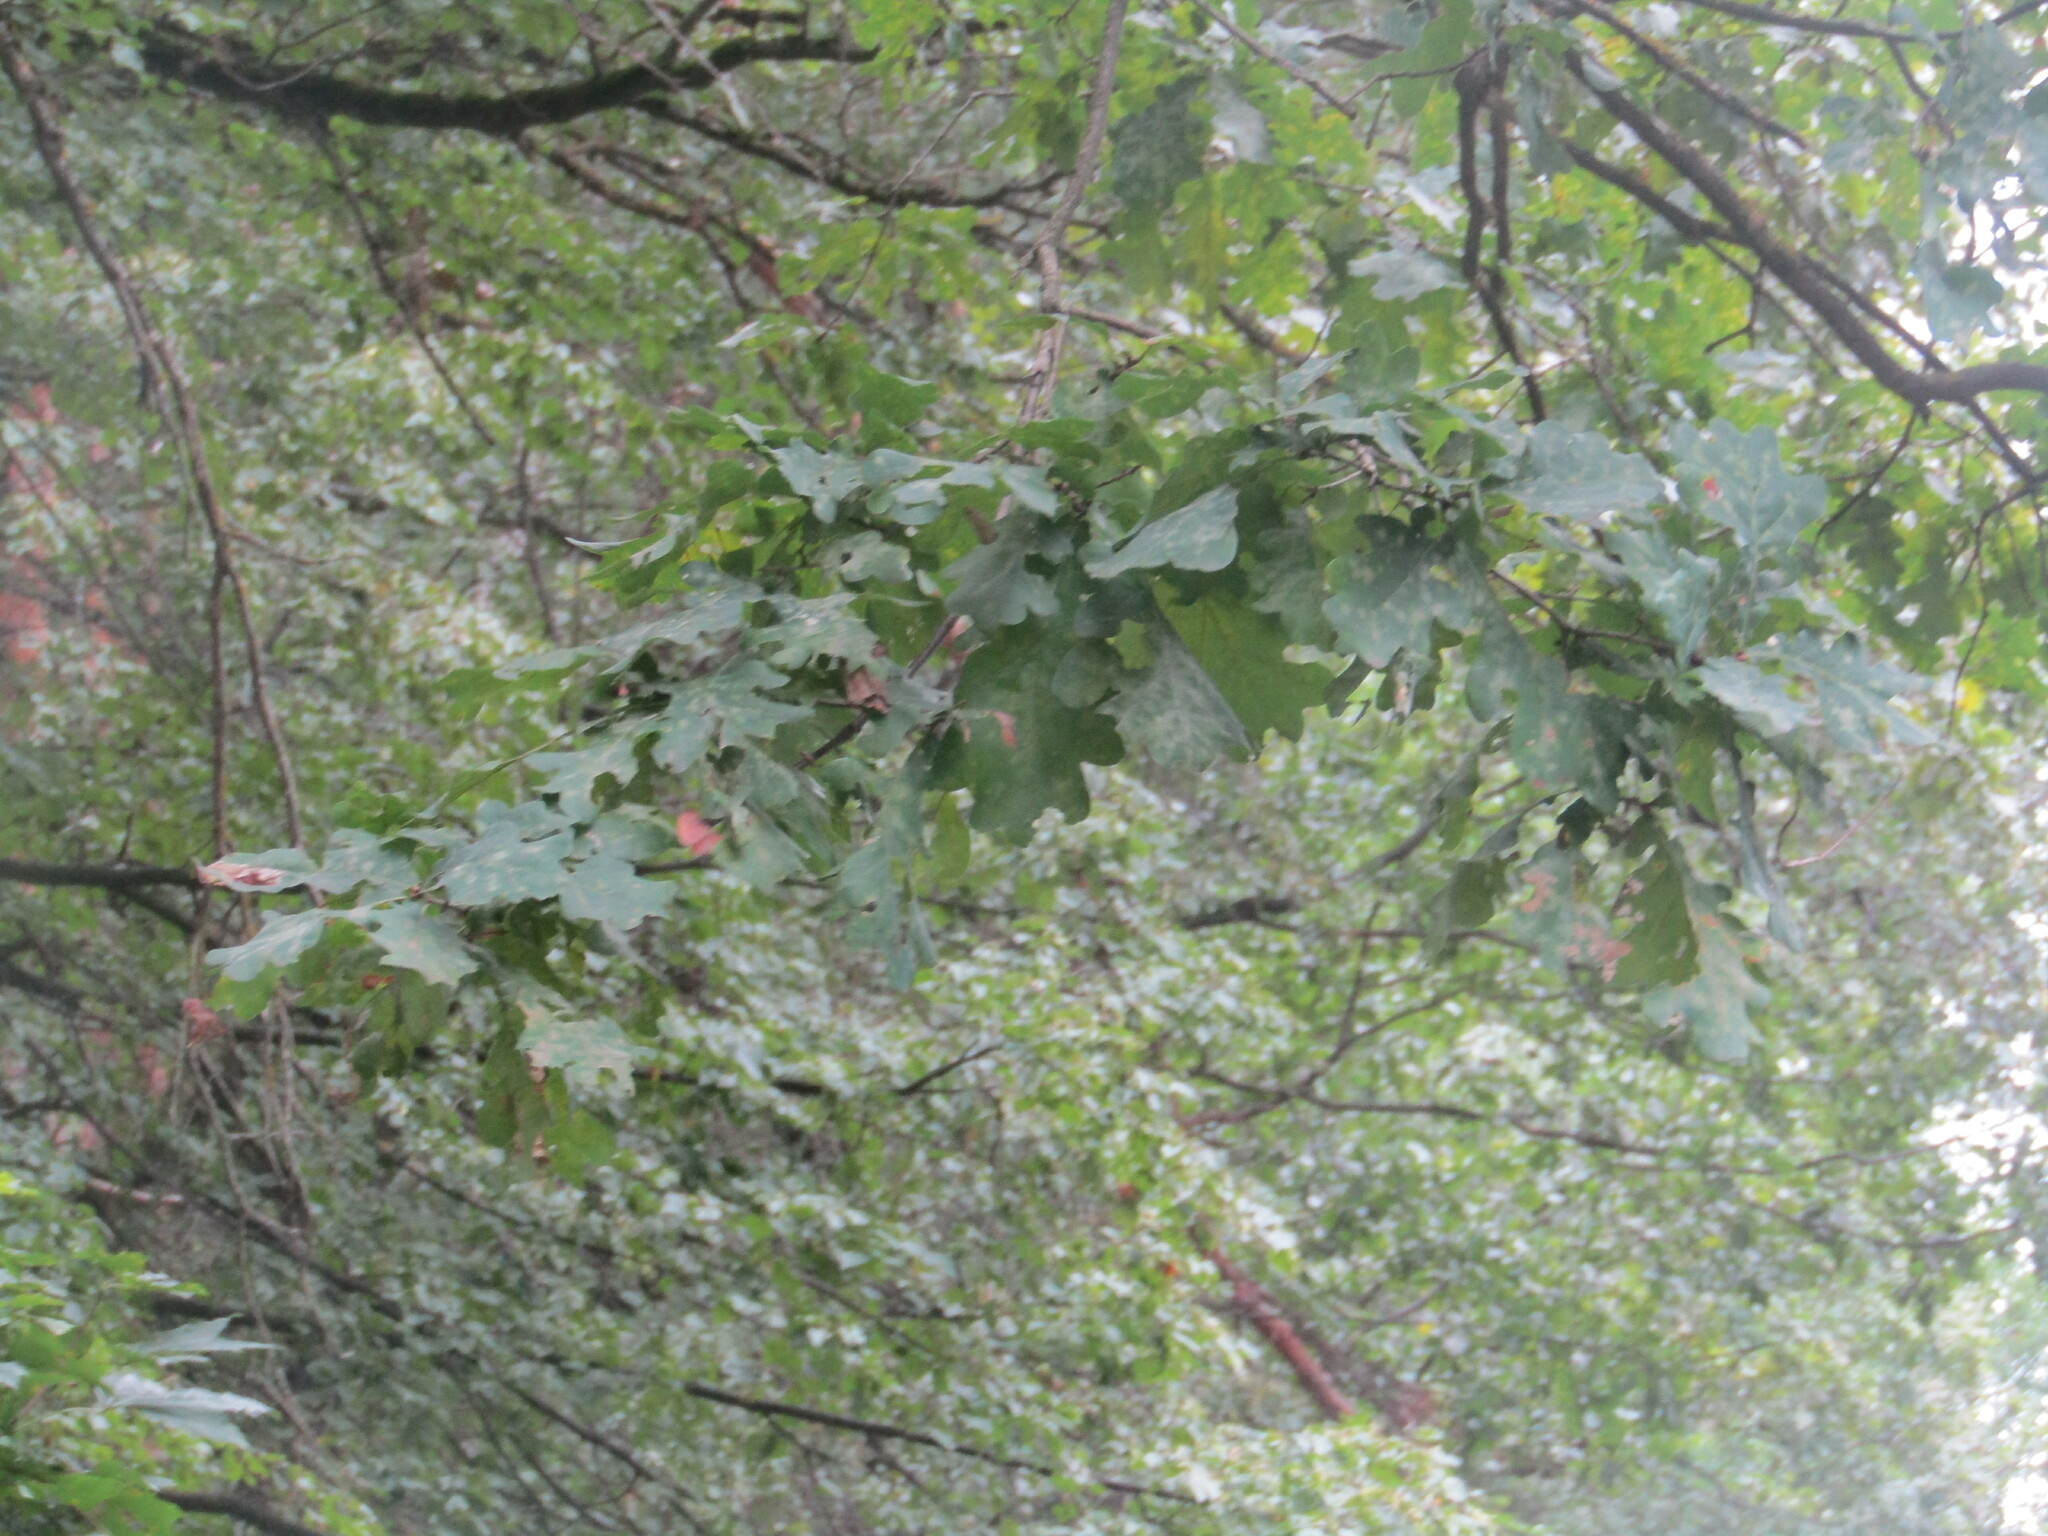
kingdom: Plantae
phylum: Tracheophyta
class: Magnoliopsida
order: Fagales
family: Fagaceae
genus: Quercus
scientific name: Quercus robur
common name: Pedunculate oak
